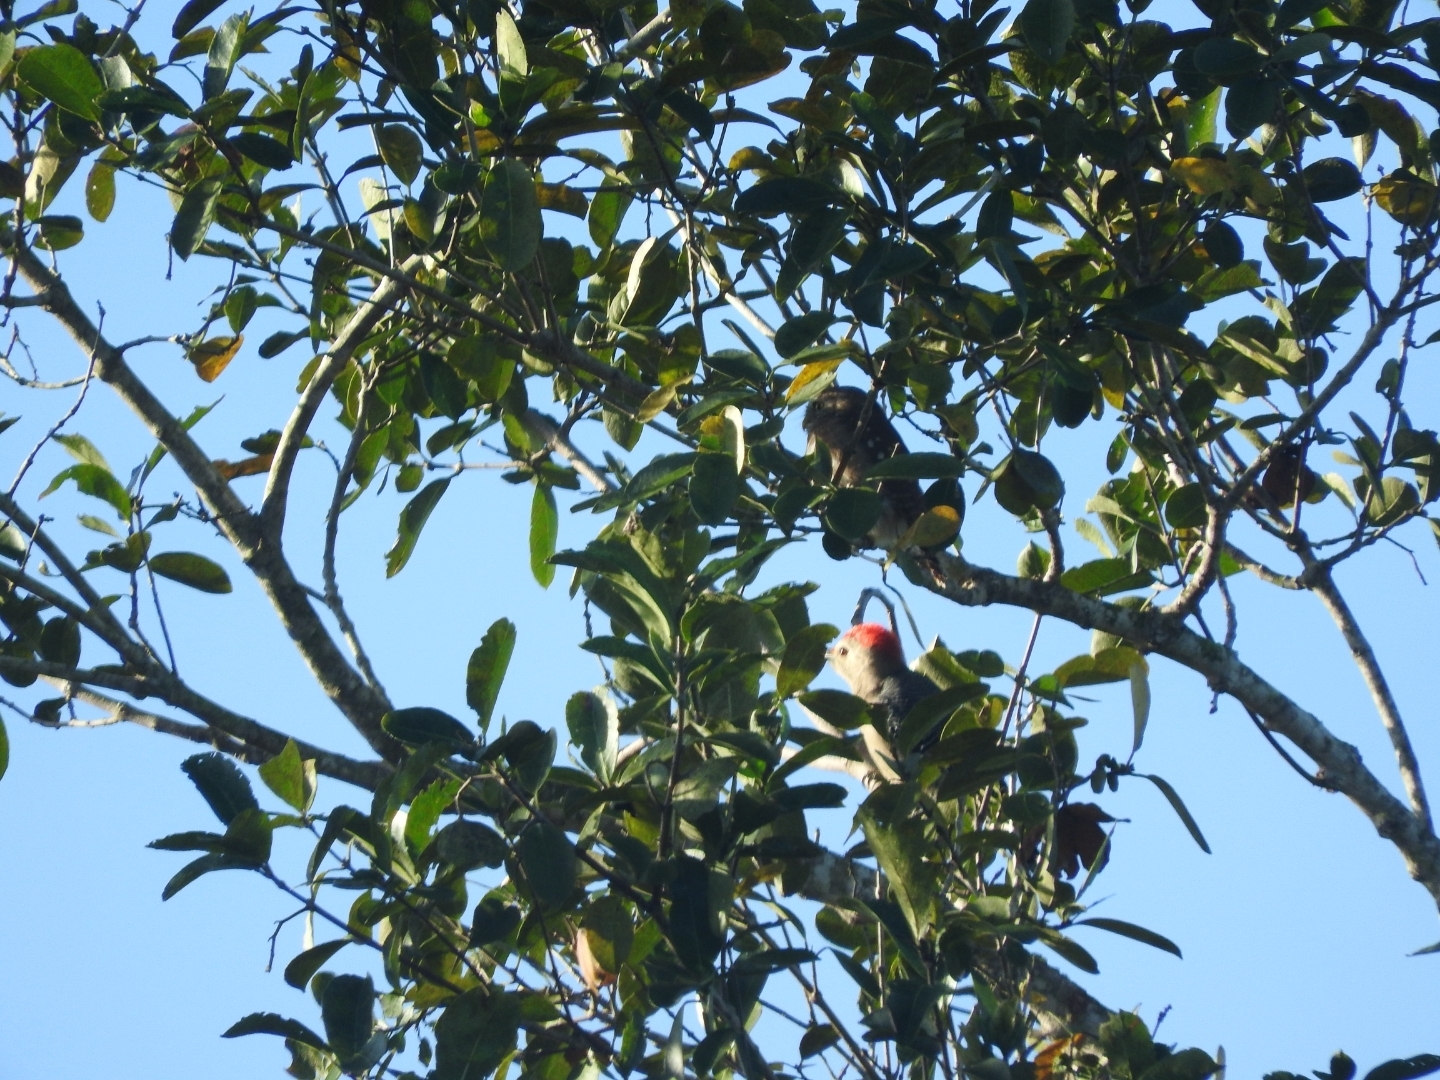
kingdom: Animalia
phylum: Chordata
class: Aves
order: Piciformes
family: Picidae
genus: Melanerpes
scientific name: Melanerpes aurifrons
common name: Golden-fronted woodpecker
